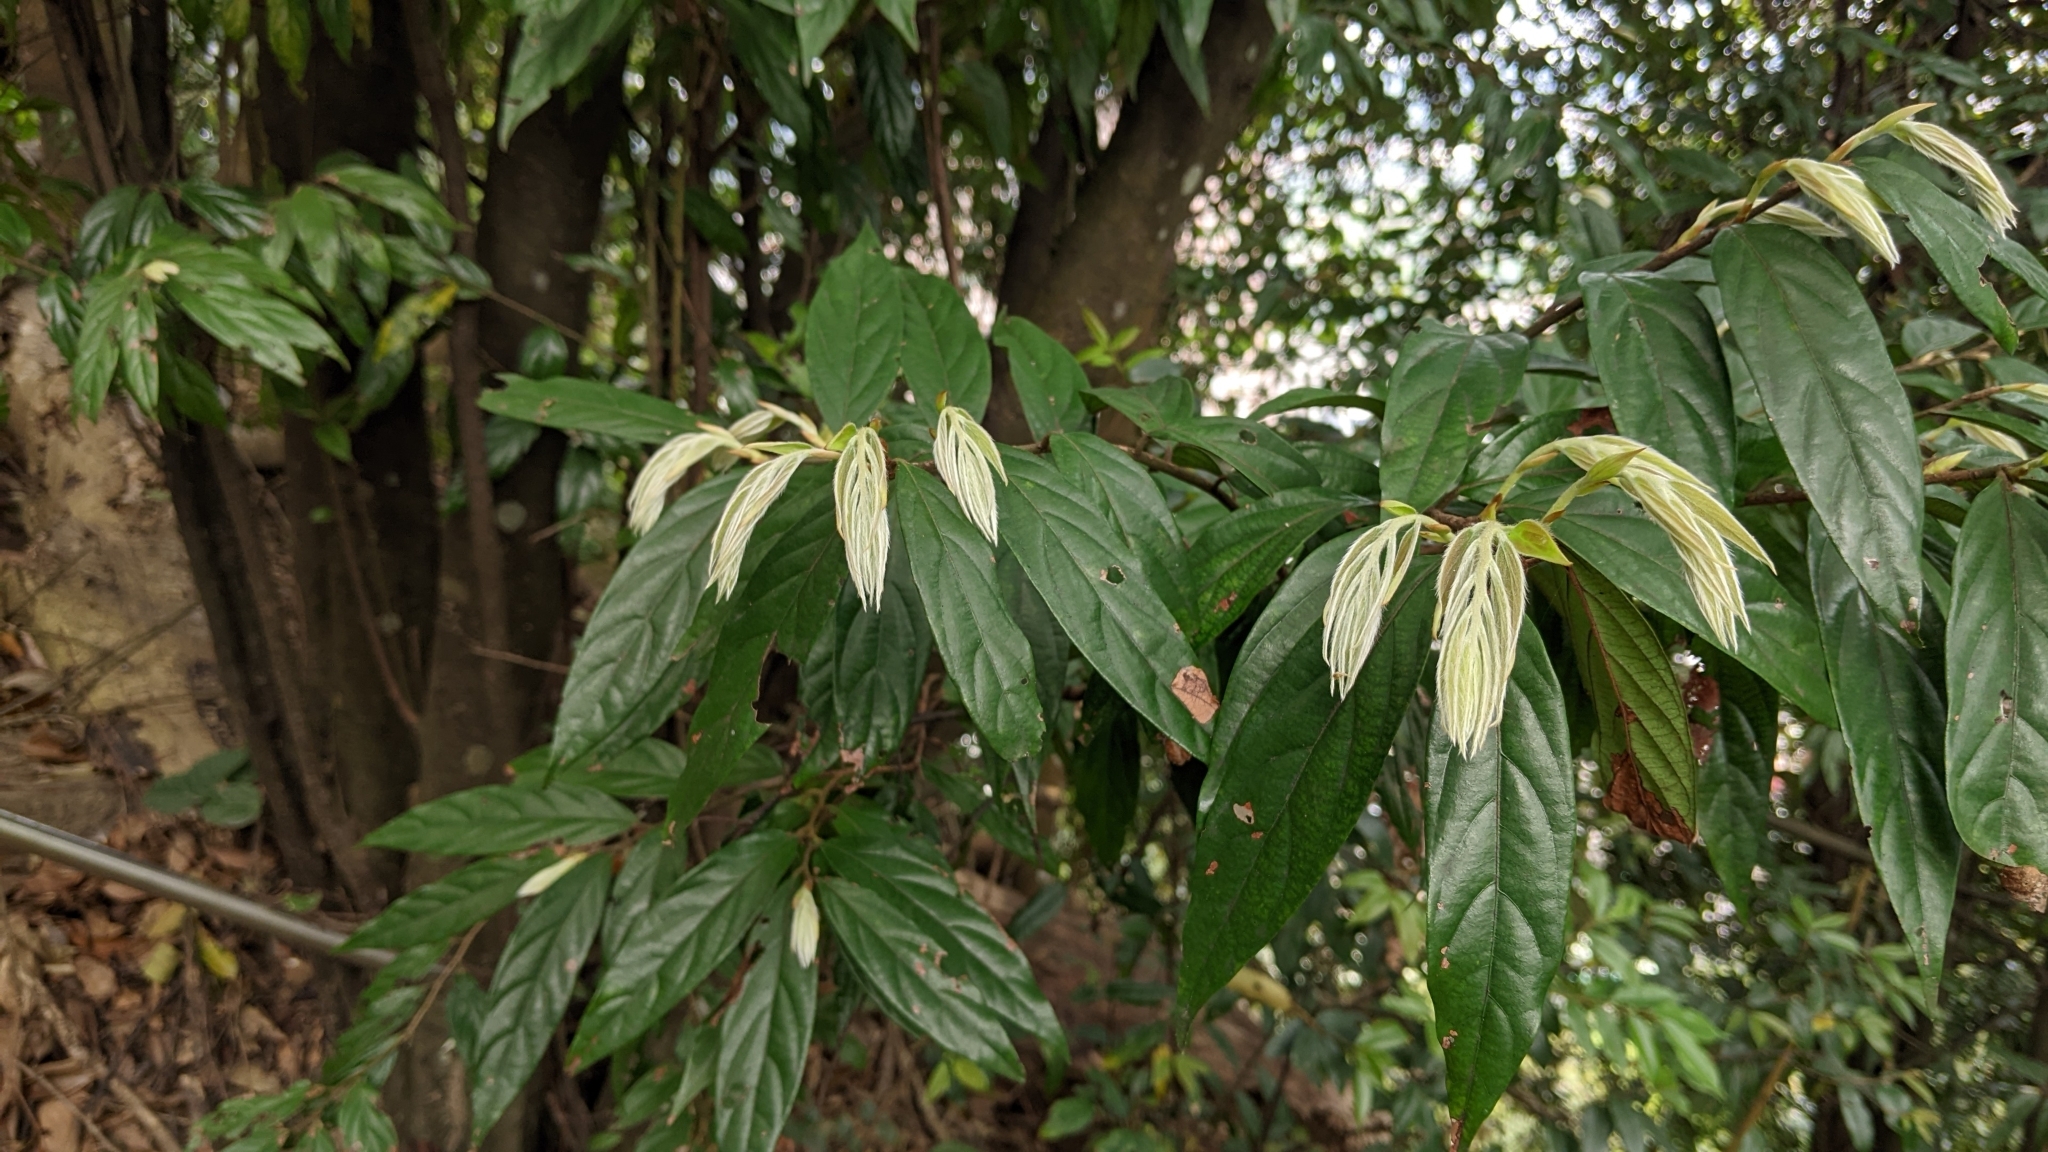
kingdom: Plantae
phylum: Tracheophyta
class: Magnoliopsida
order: Ericales
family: Ebenaceae
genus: Diospyros
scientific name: Diospyros eriantha
